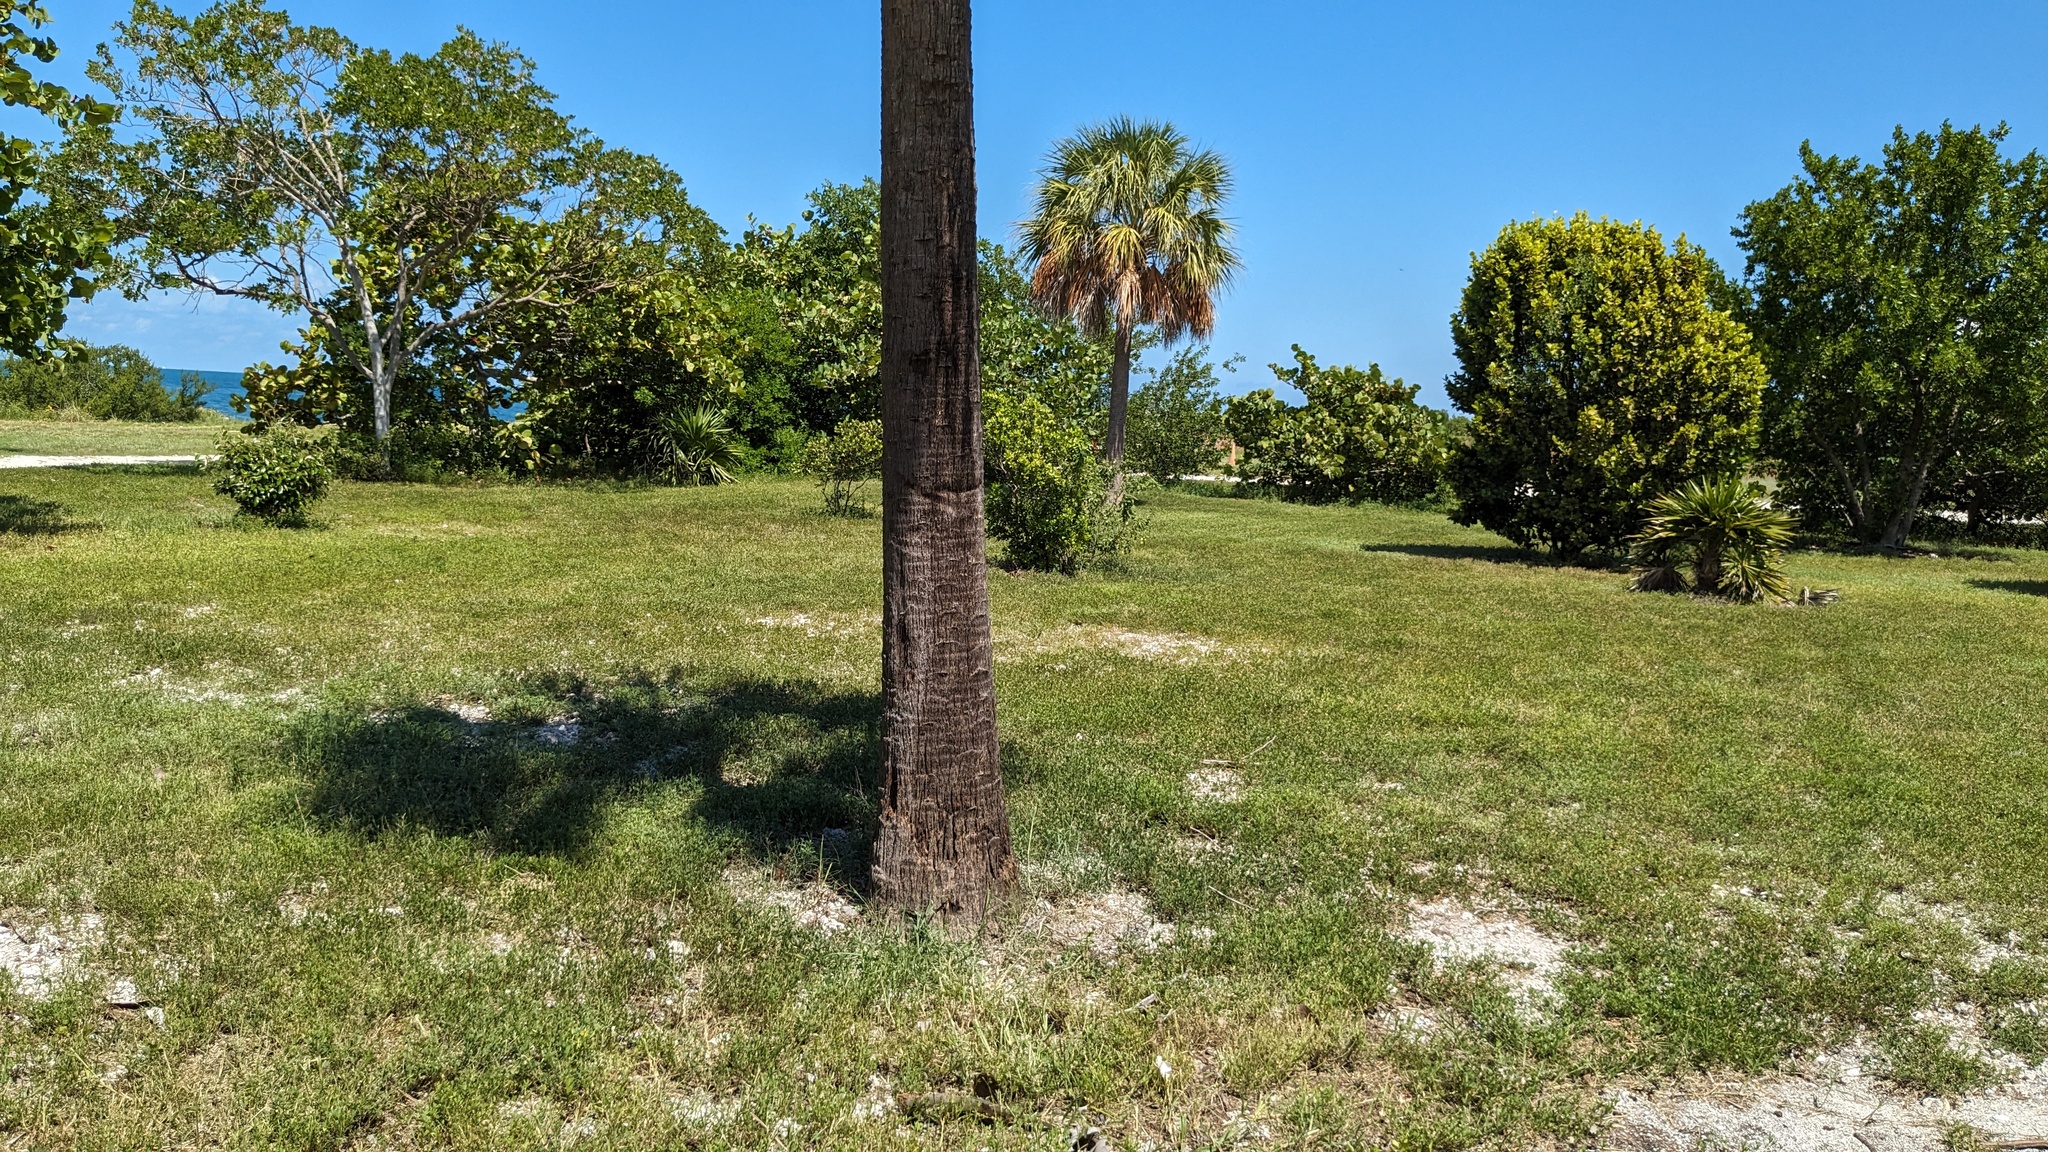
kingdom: Plantae
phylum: Tracheophyta
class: Liliopsida
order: Arecales
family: Arecaceae
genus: Sabal
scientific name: Sabal palmetto
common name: Blue palmetto
